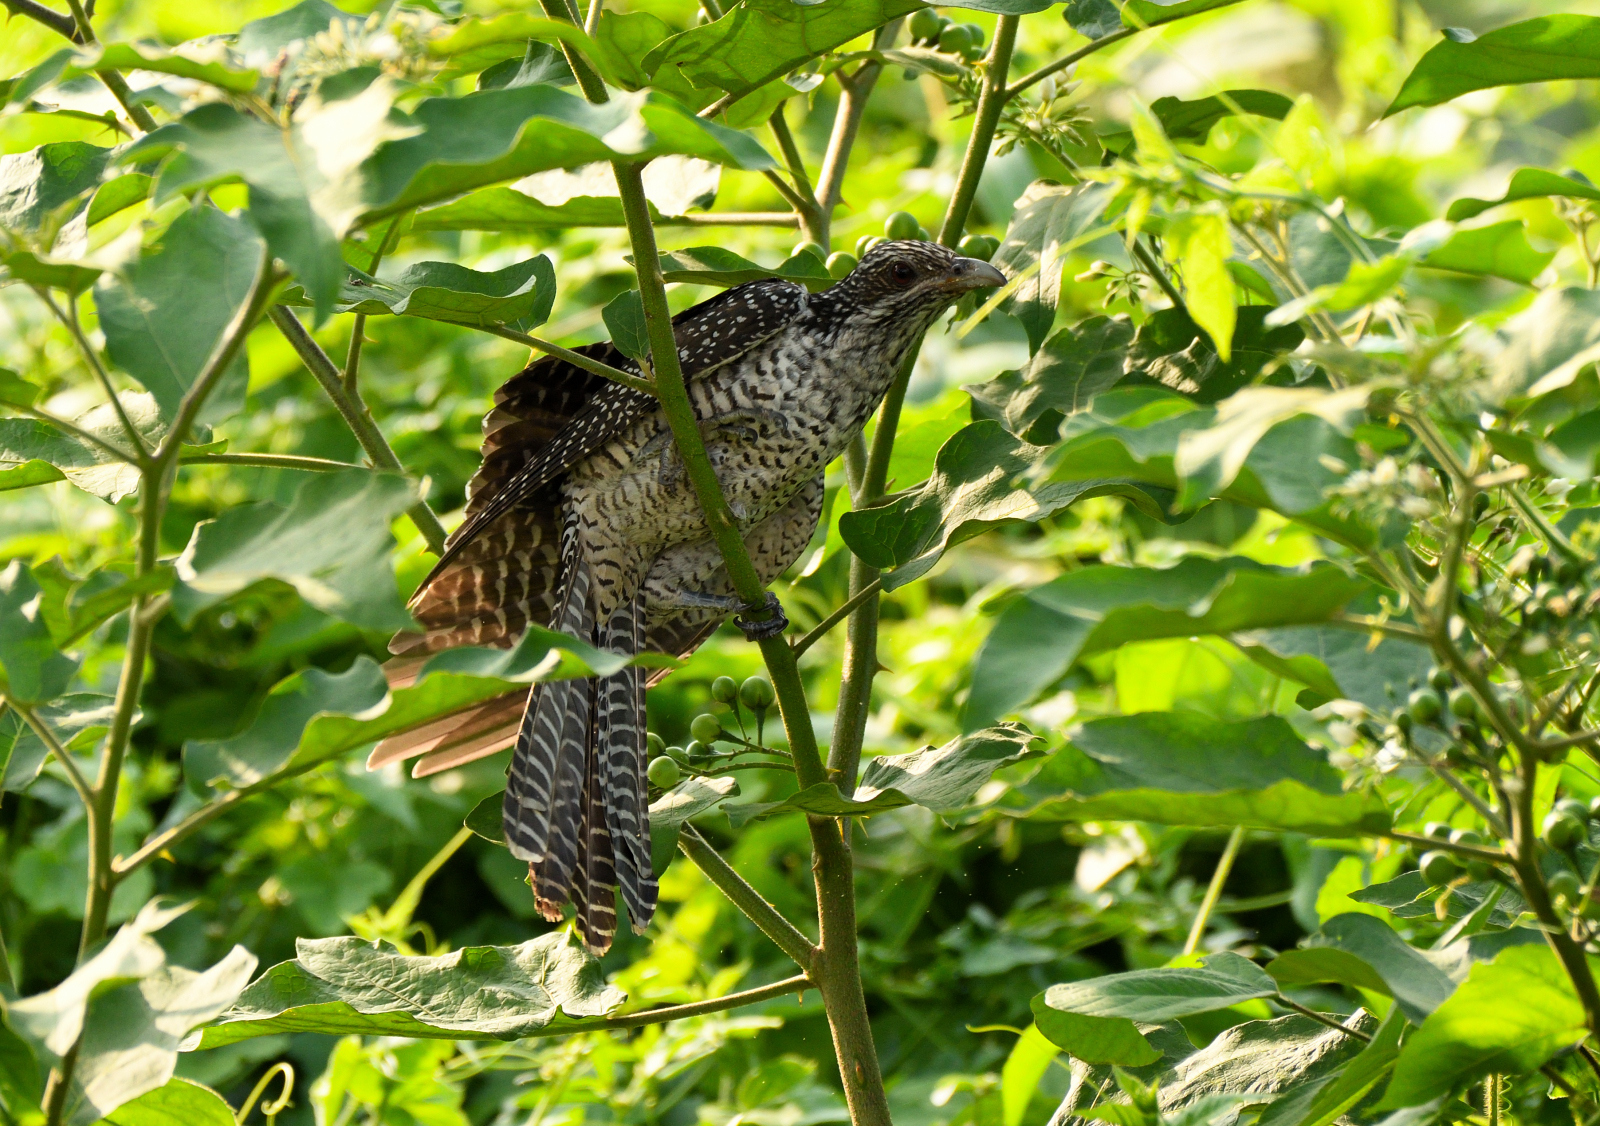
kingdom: Animalia
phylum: Chordata
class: Aves
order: Cuculiformes
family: Cuculidae
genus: Eudynamys
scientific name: Eudynamys scolopaceus
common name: Asian koel
